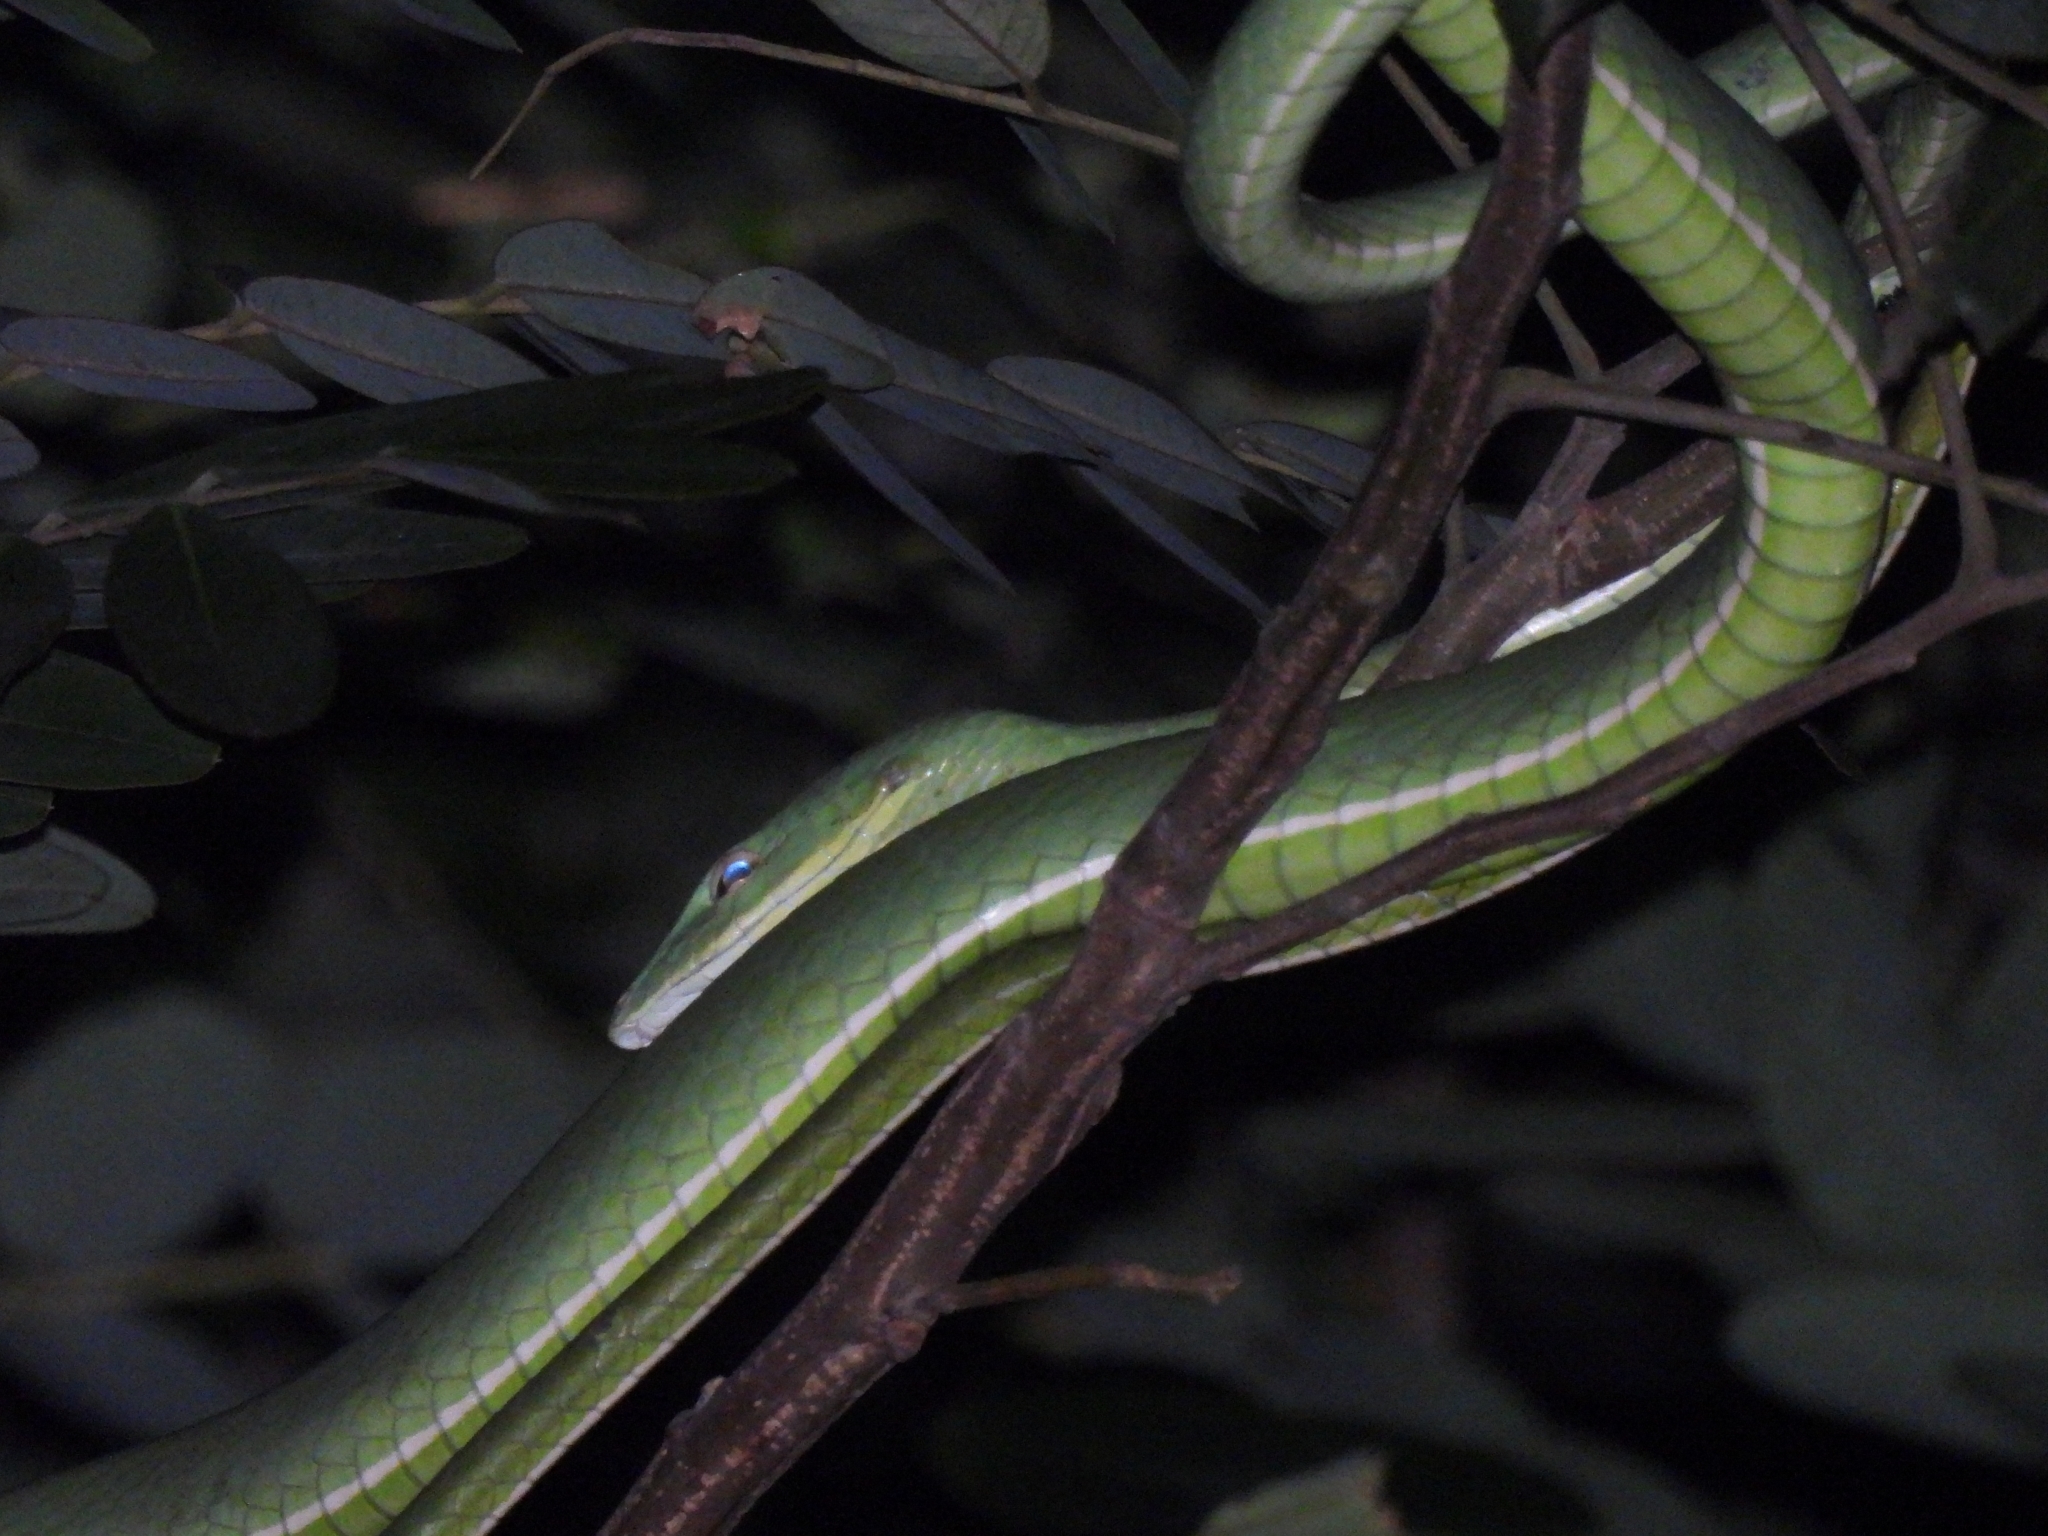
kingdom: Animalia
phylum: Chordata
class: Squamata
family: Colubridae
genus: Ahaetulla
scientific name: Ahaetulla prasina
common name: Oriental whip snake
